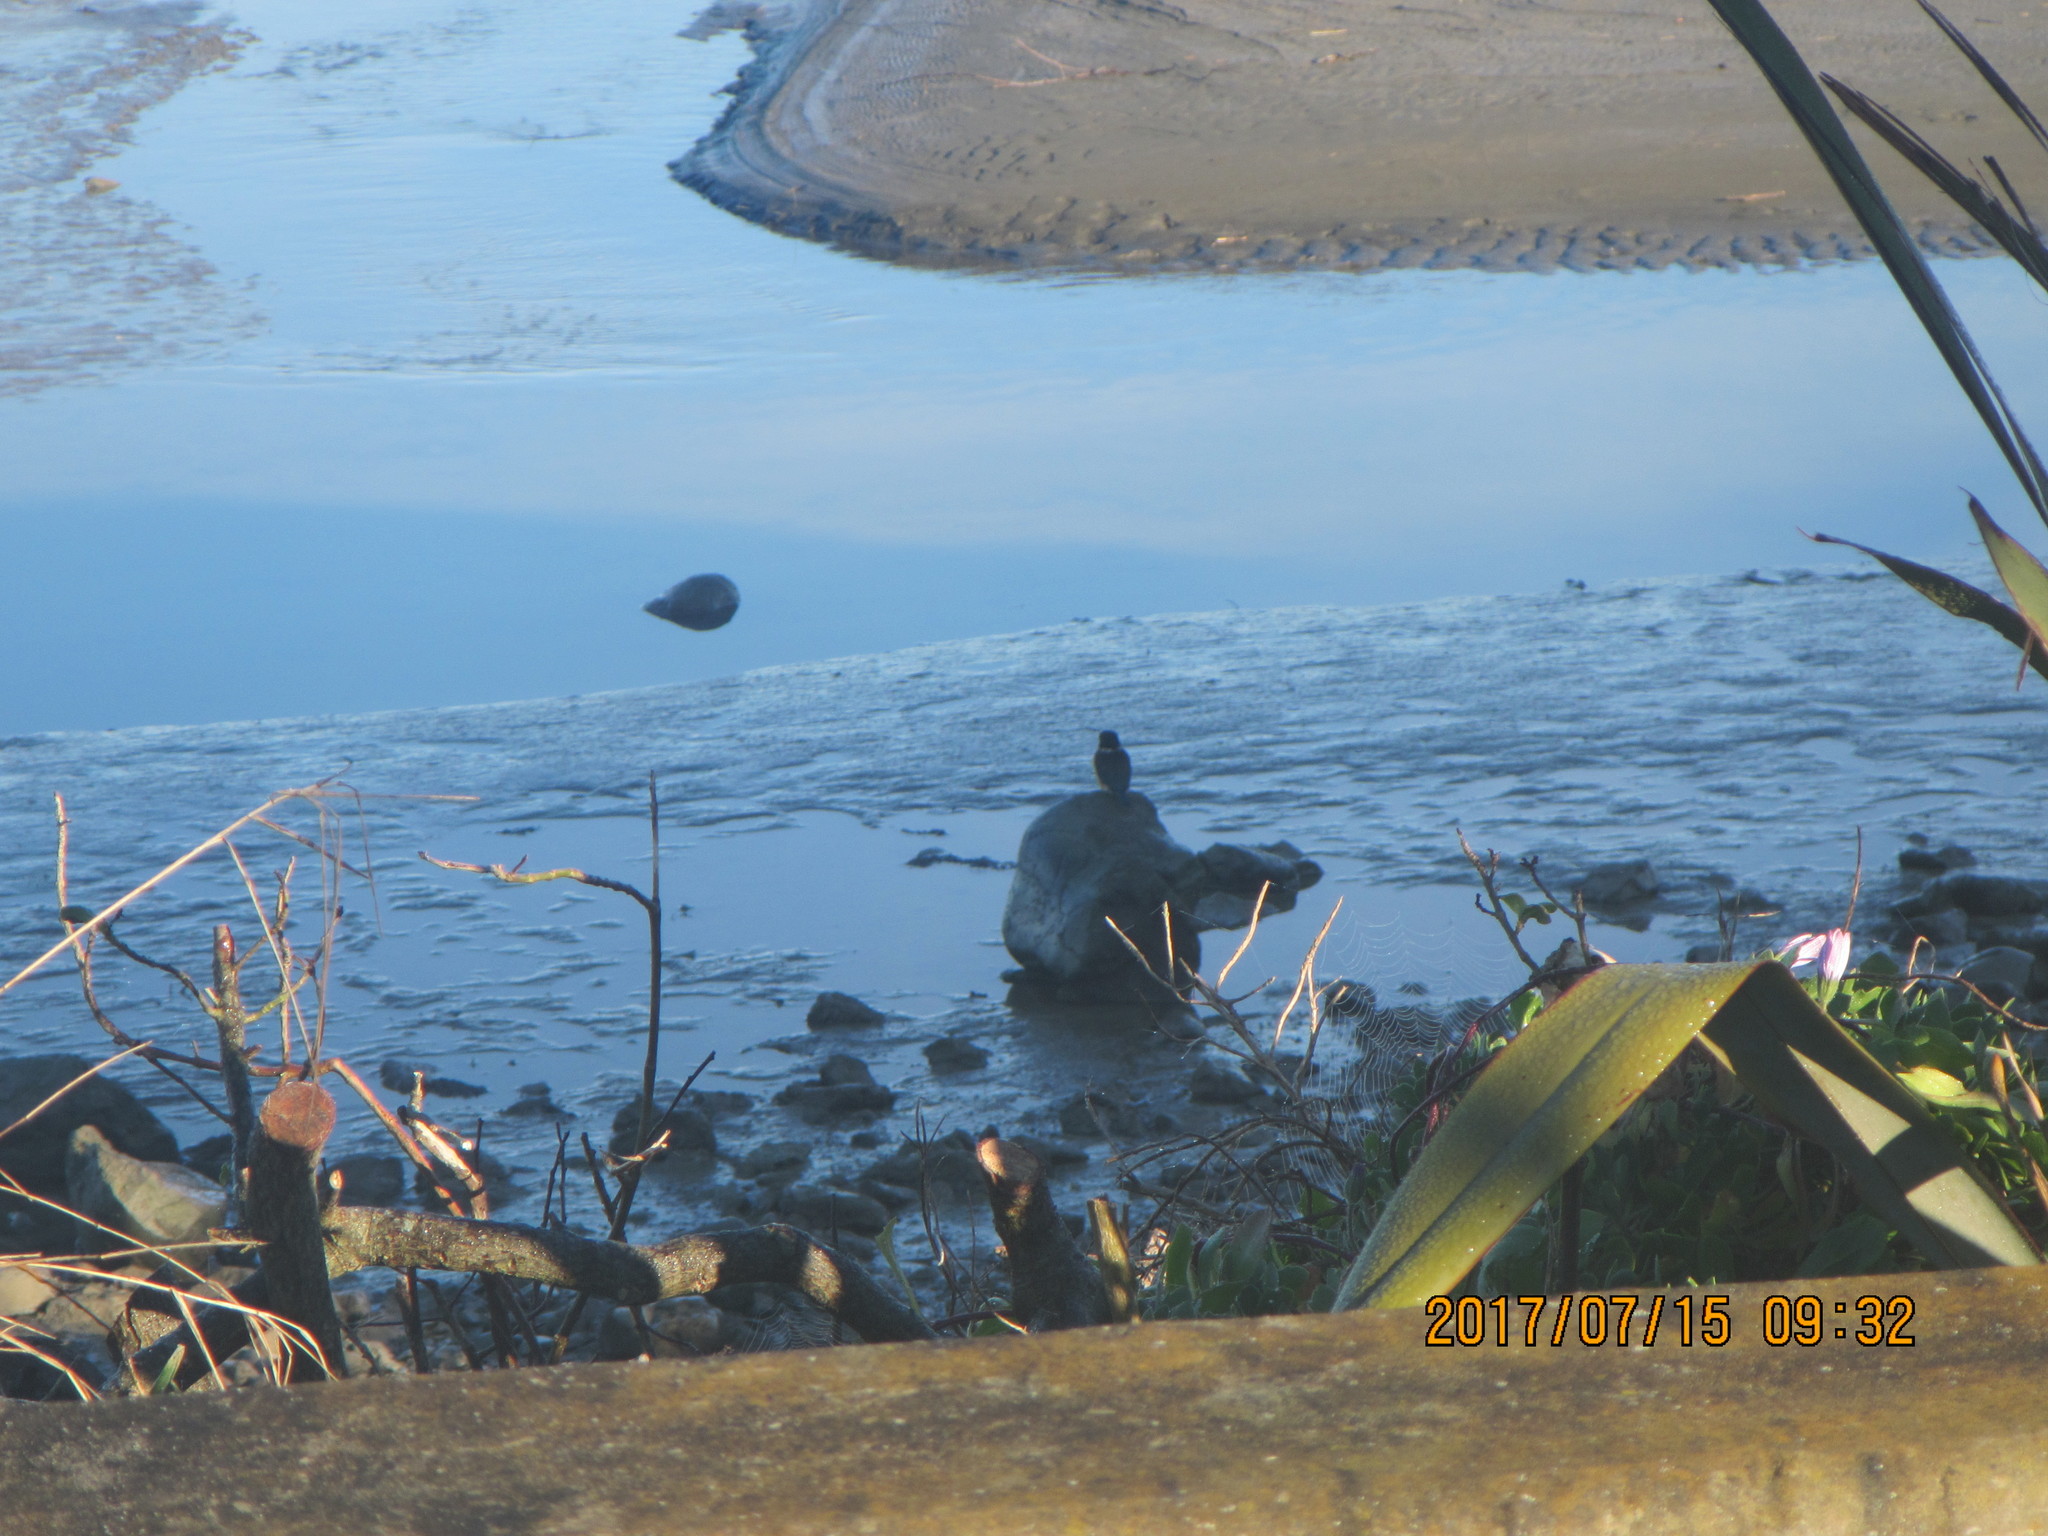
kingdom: Animalia
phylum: Chordata
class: Aves
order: Coraciiformes
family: Alcedinidae
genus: Todiramphus
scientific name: Todiramphus sanctus
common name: Sacred kingfisher
